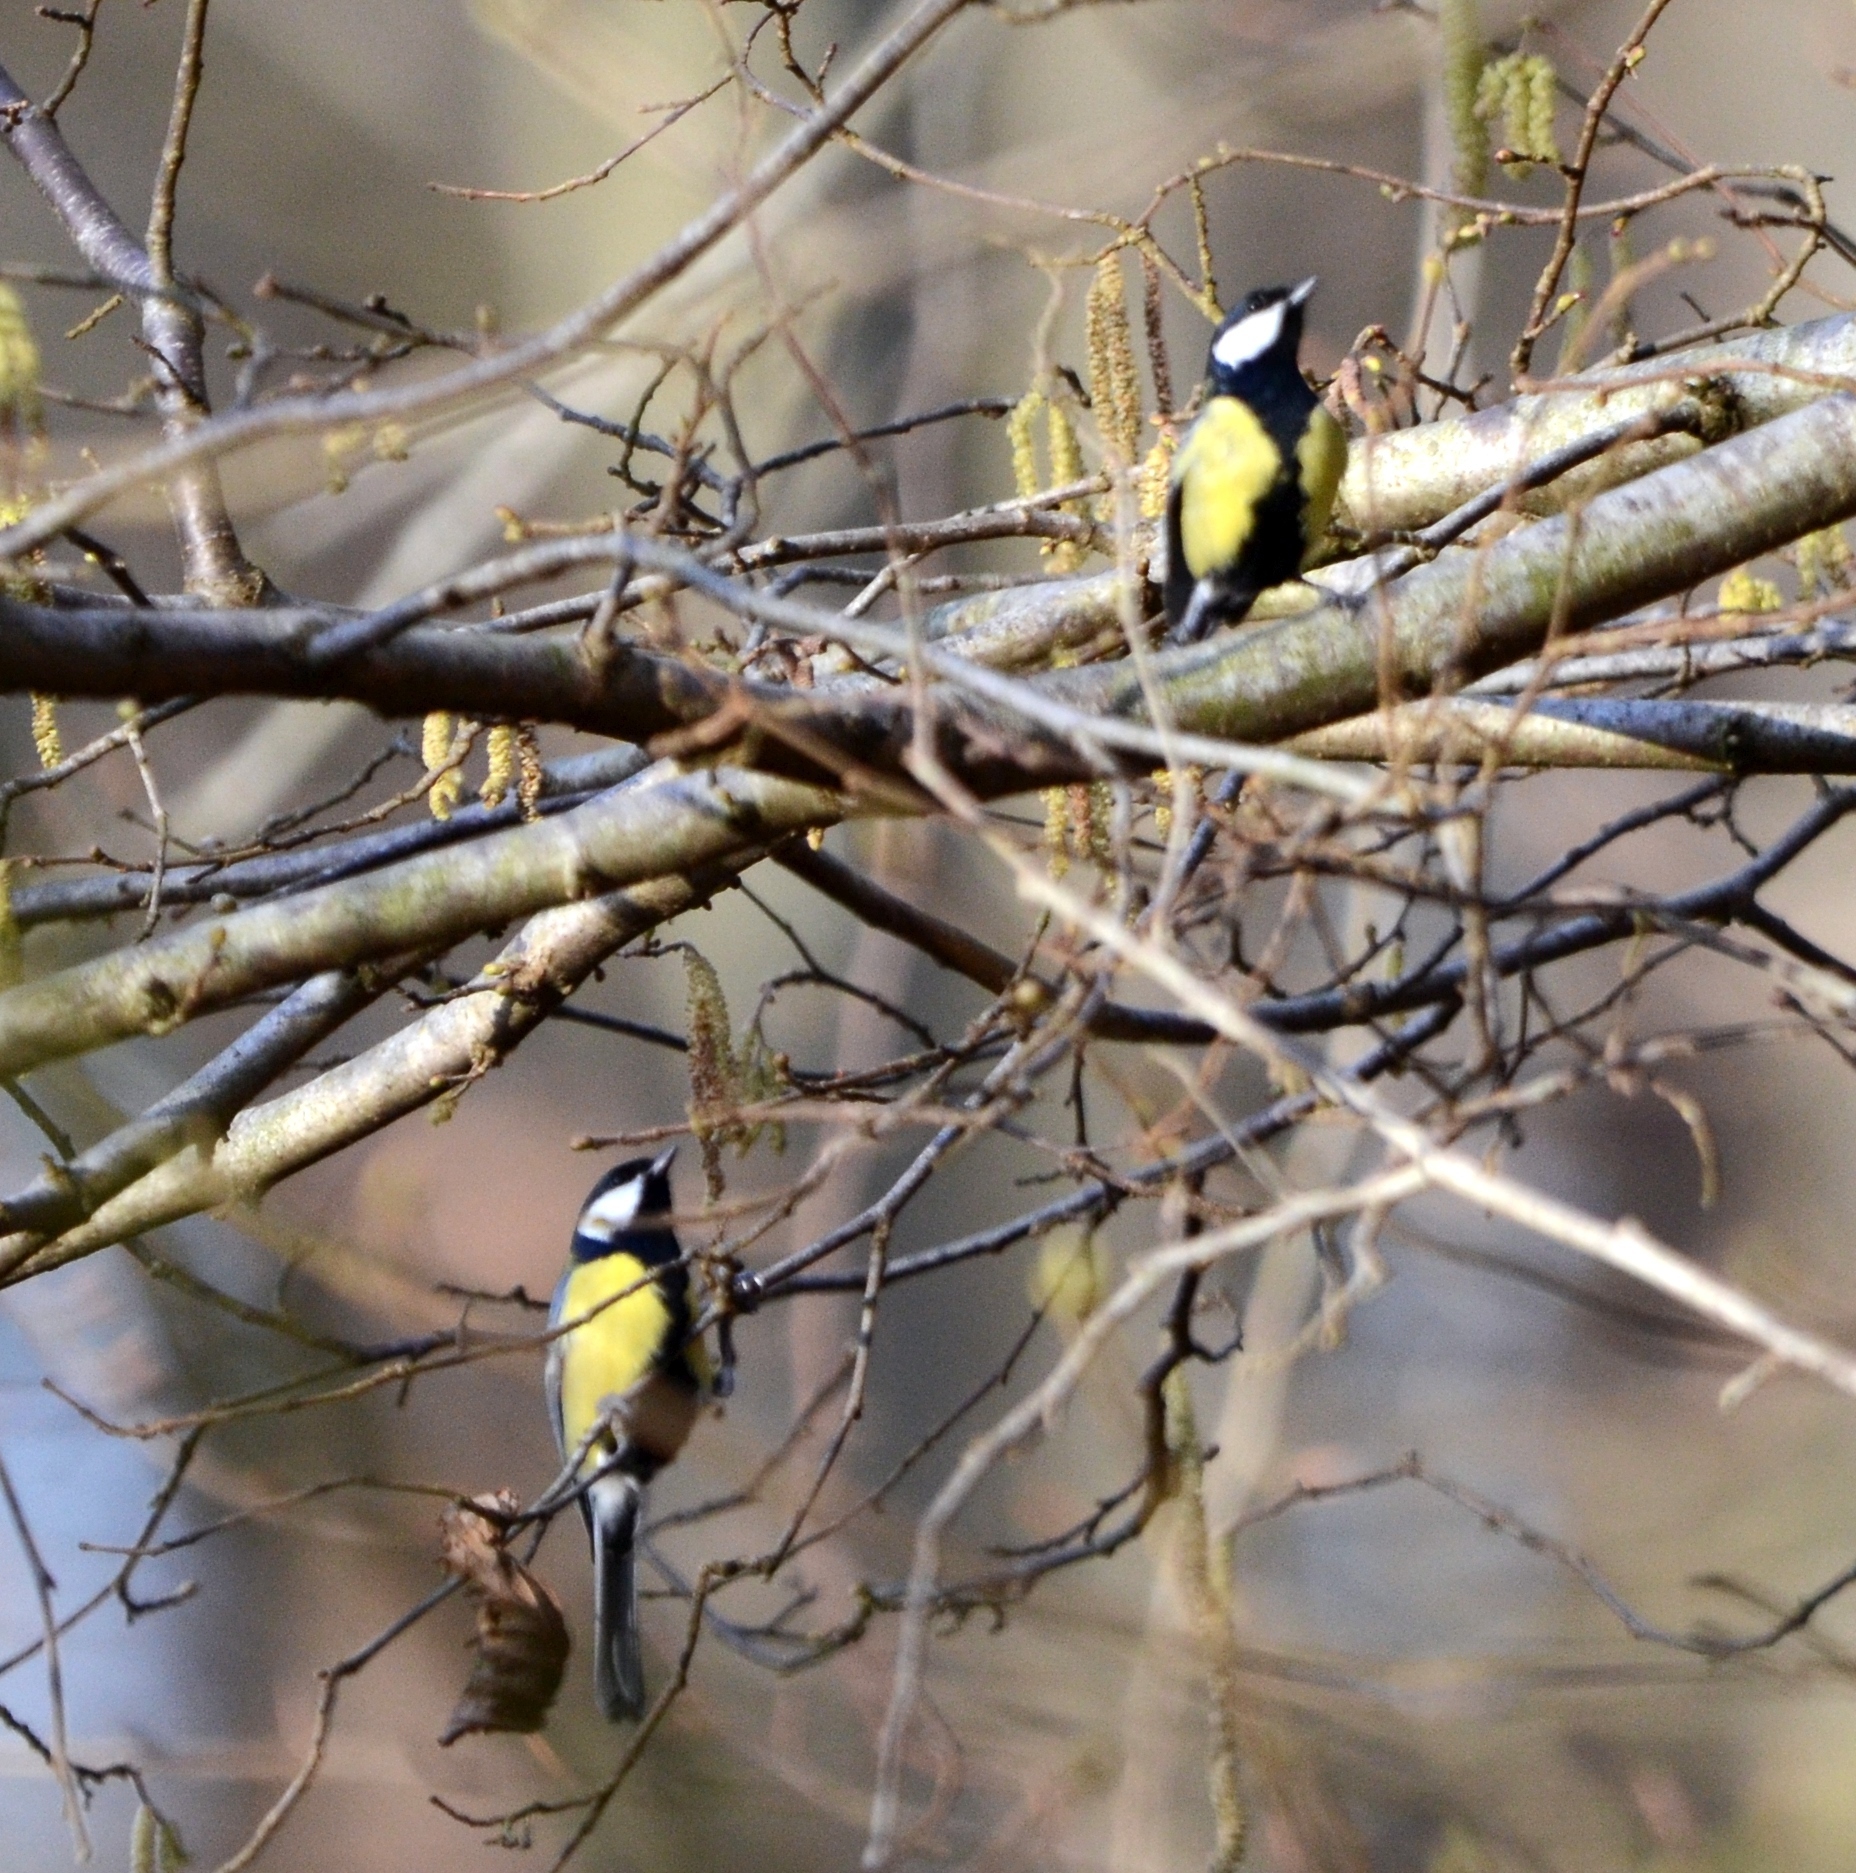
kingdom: Animalia
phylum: Chordata
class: Aves
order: Passeriformes
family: Paridae
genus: Parus
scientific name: Parus major
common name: Great tit
